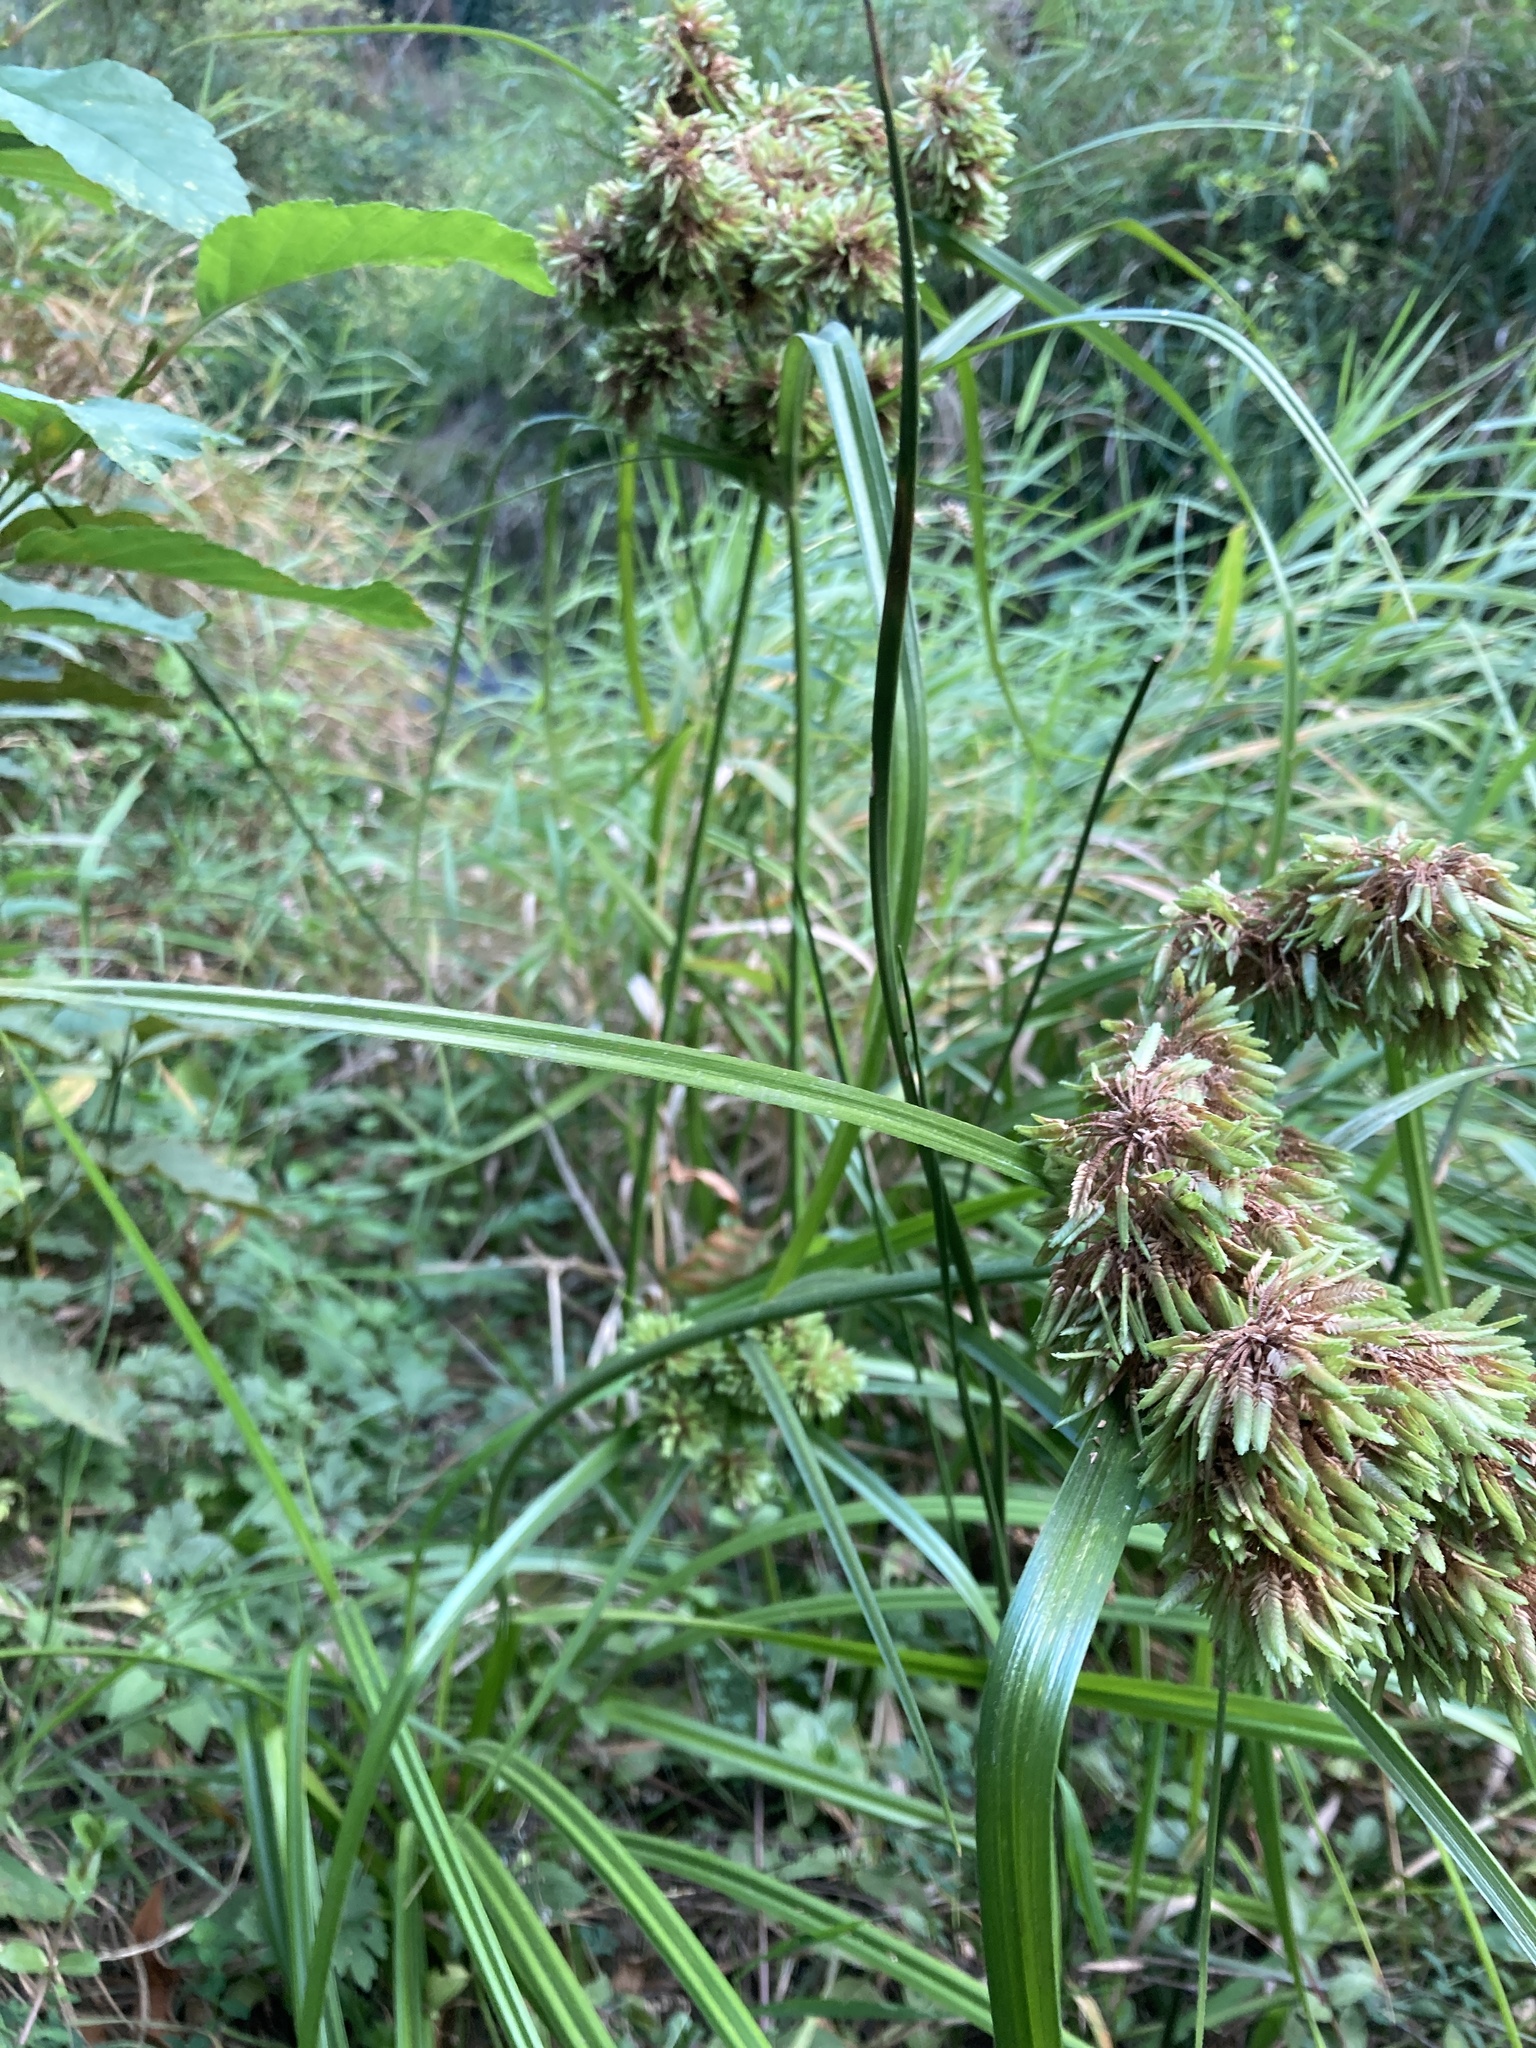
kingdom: Plantae
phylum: Tracheophyta
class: Liliopsida
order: Poales
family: Cyperaceae
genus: Cyperus
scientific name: Cyperus eragrostis
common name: Tall flatsedge
